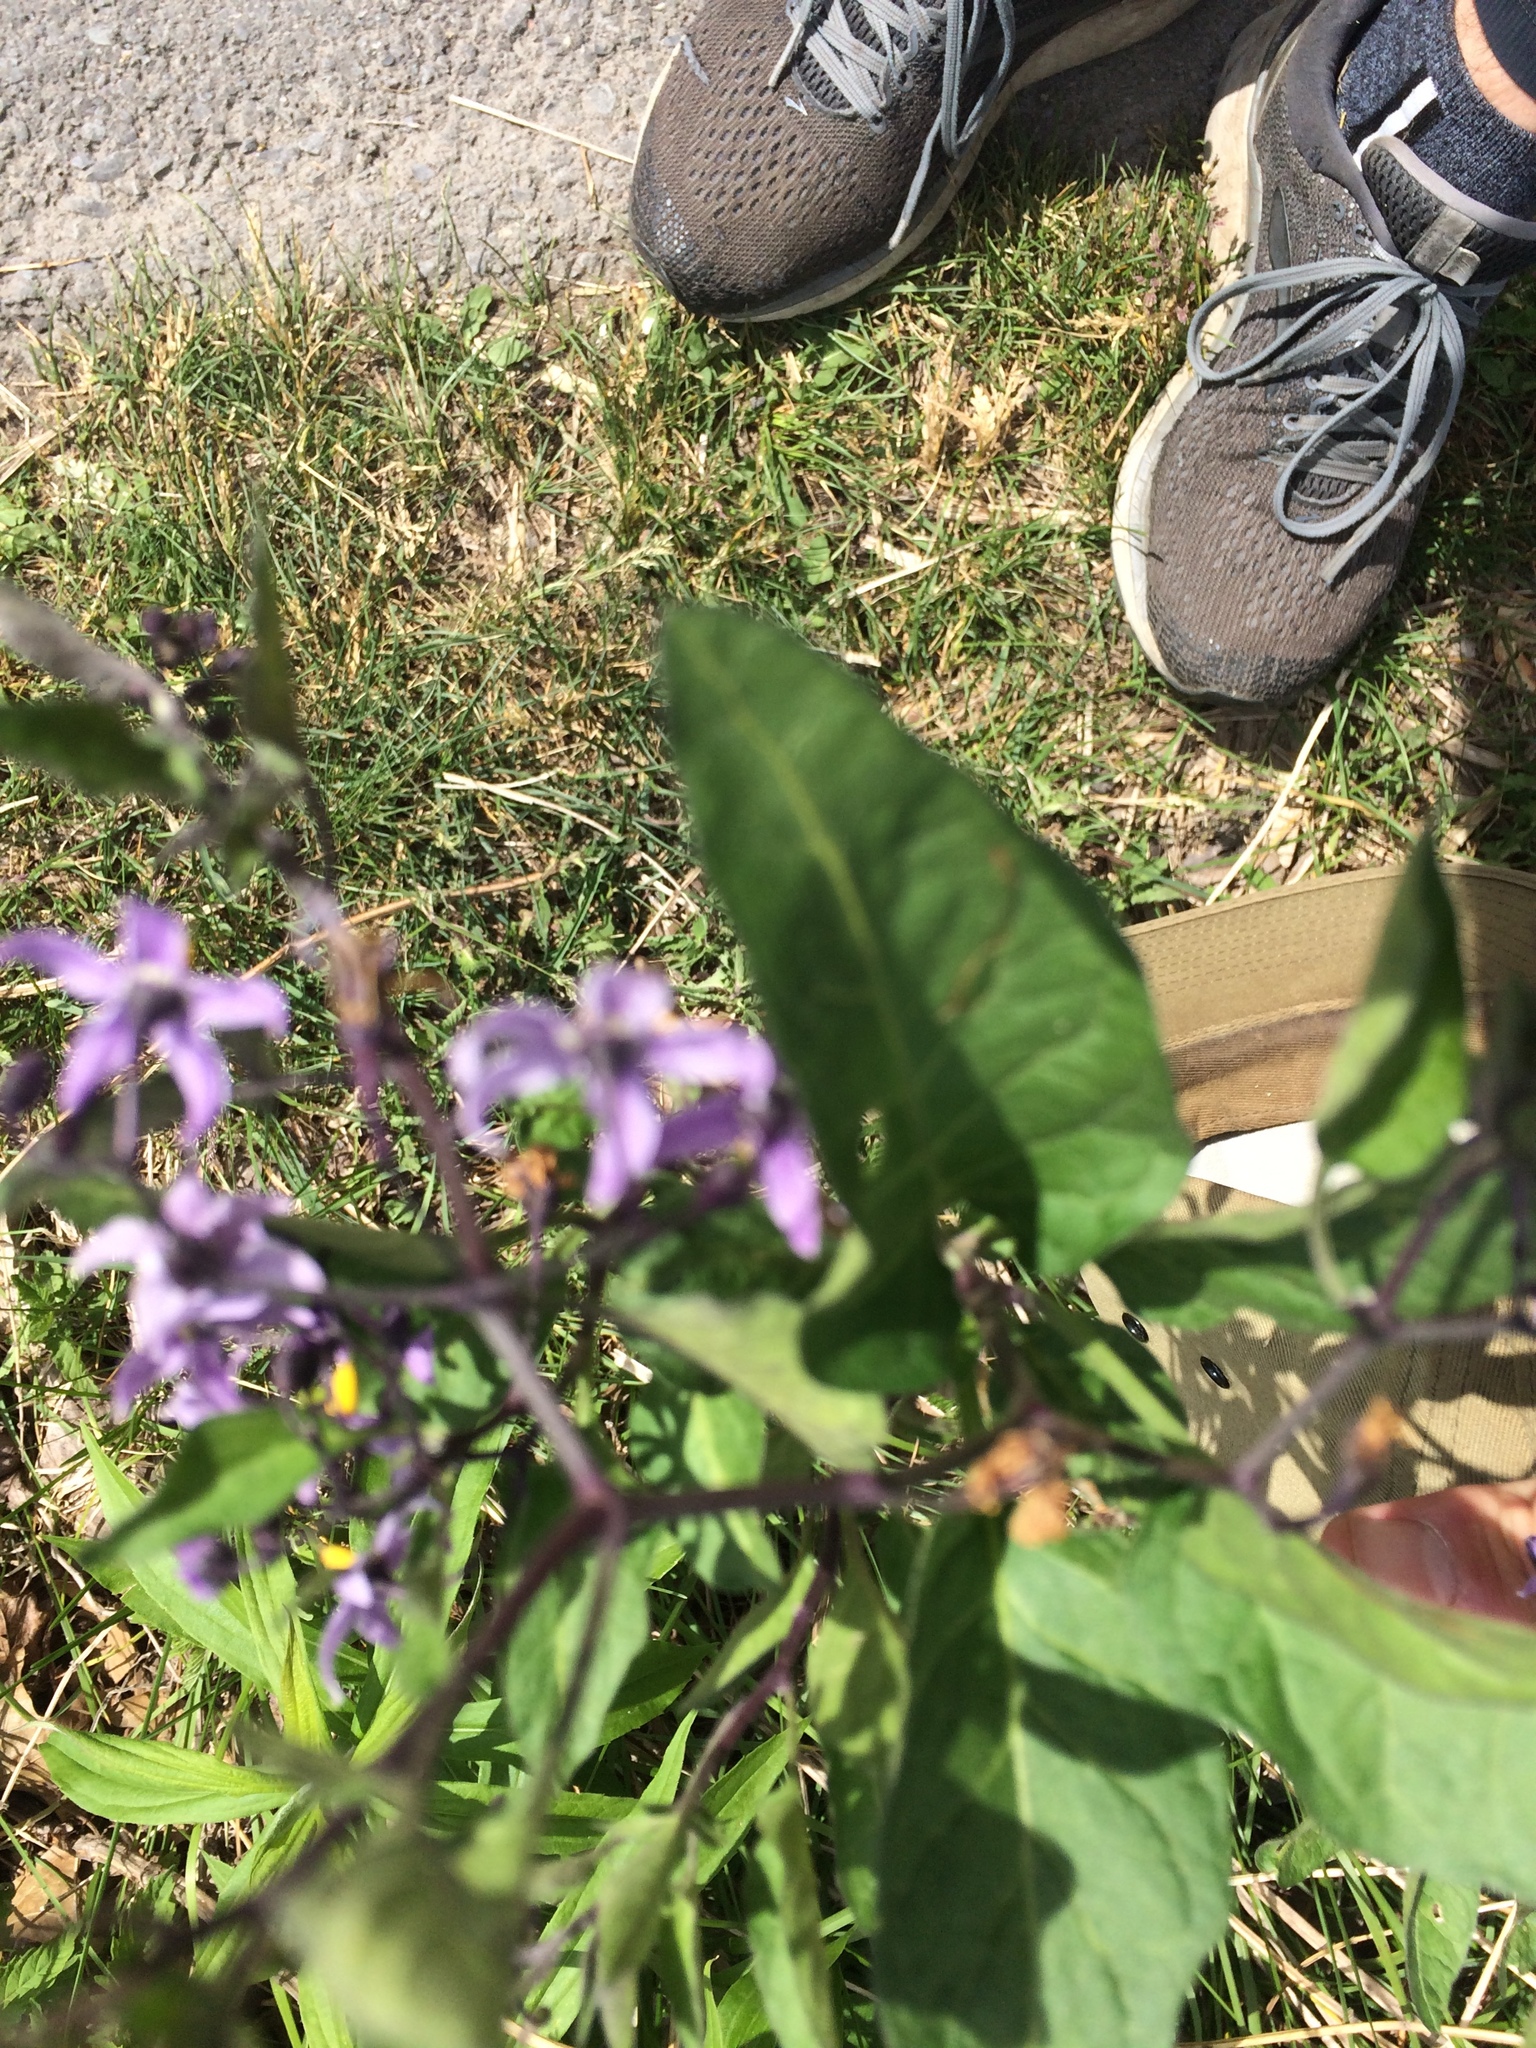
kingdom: Plantae
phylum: Tracheophyta
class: Magnoliopsida
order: Solanales
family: Solanaceae
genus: Solanum
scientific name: Solanum dulcamara
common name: Climbing nightshade
